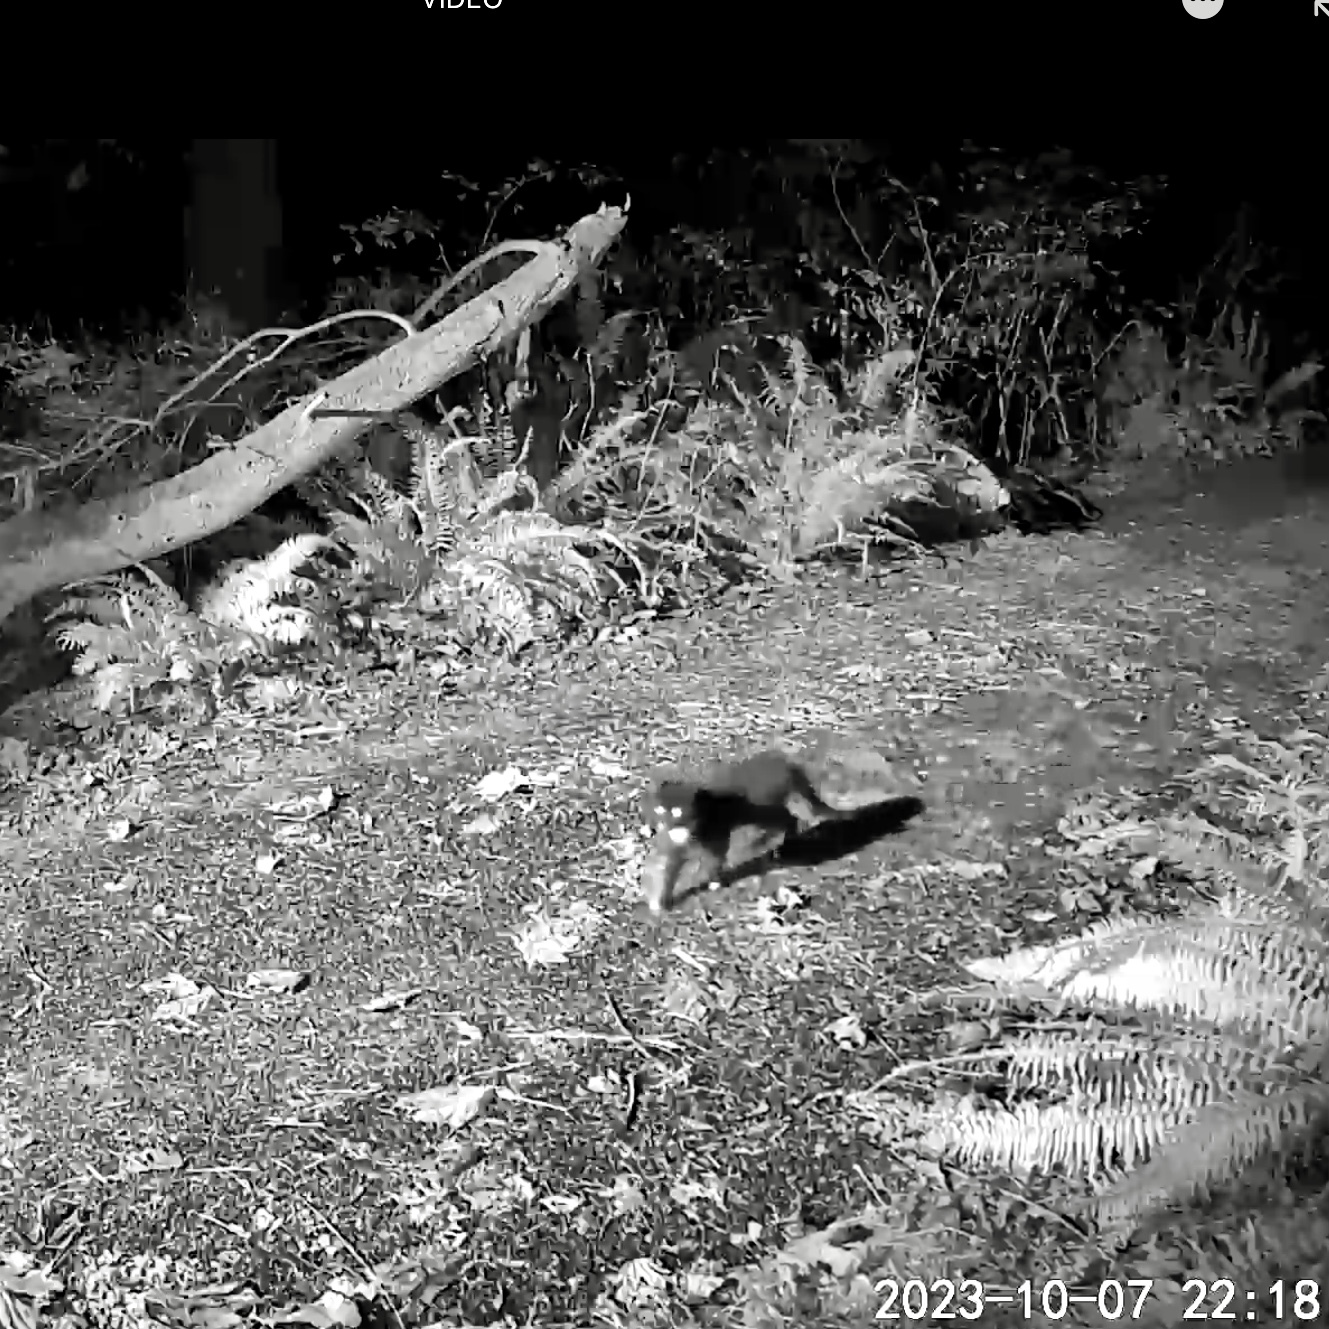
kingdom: Animalia
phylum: Chordata
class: Mammalia
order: Carnivora
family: Felidae
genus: Felis
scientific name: Felis catus
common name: Domestic cat
